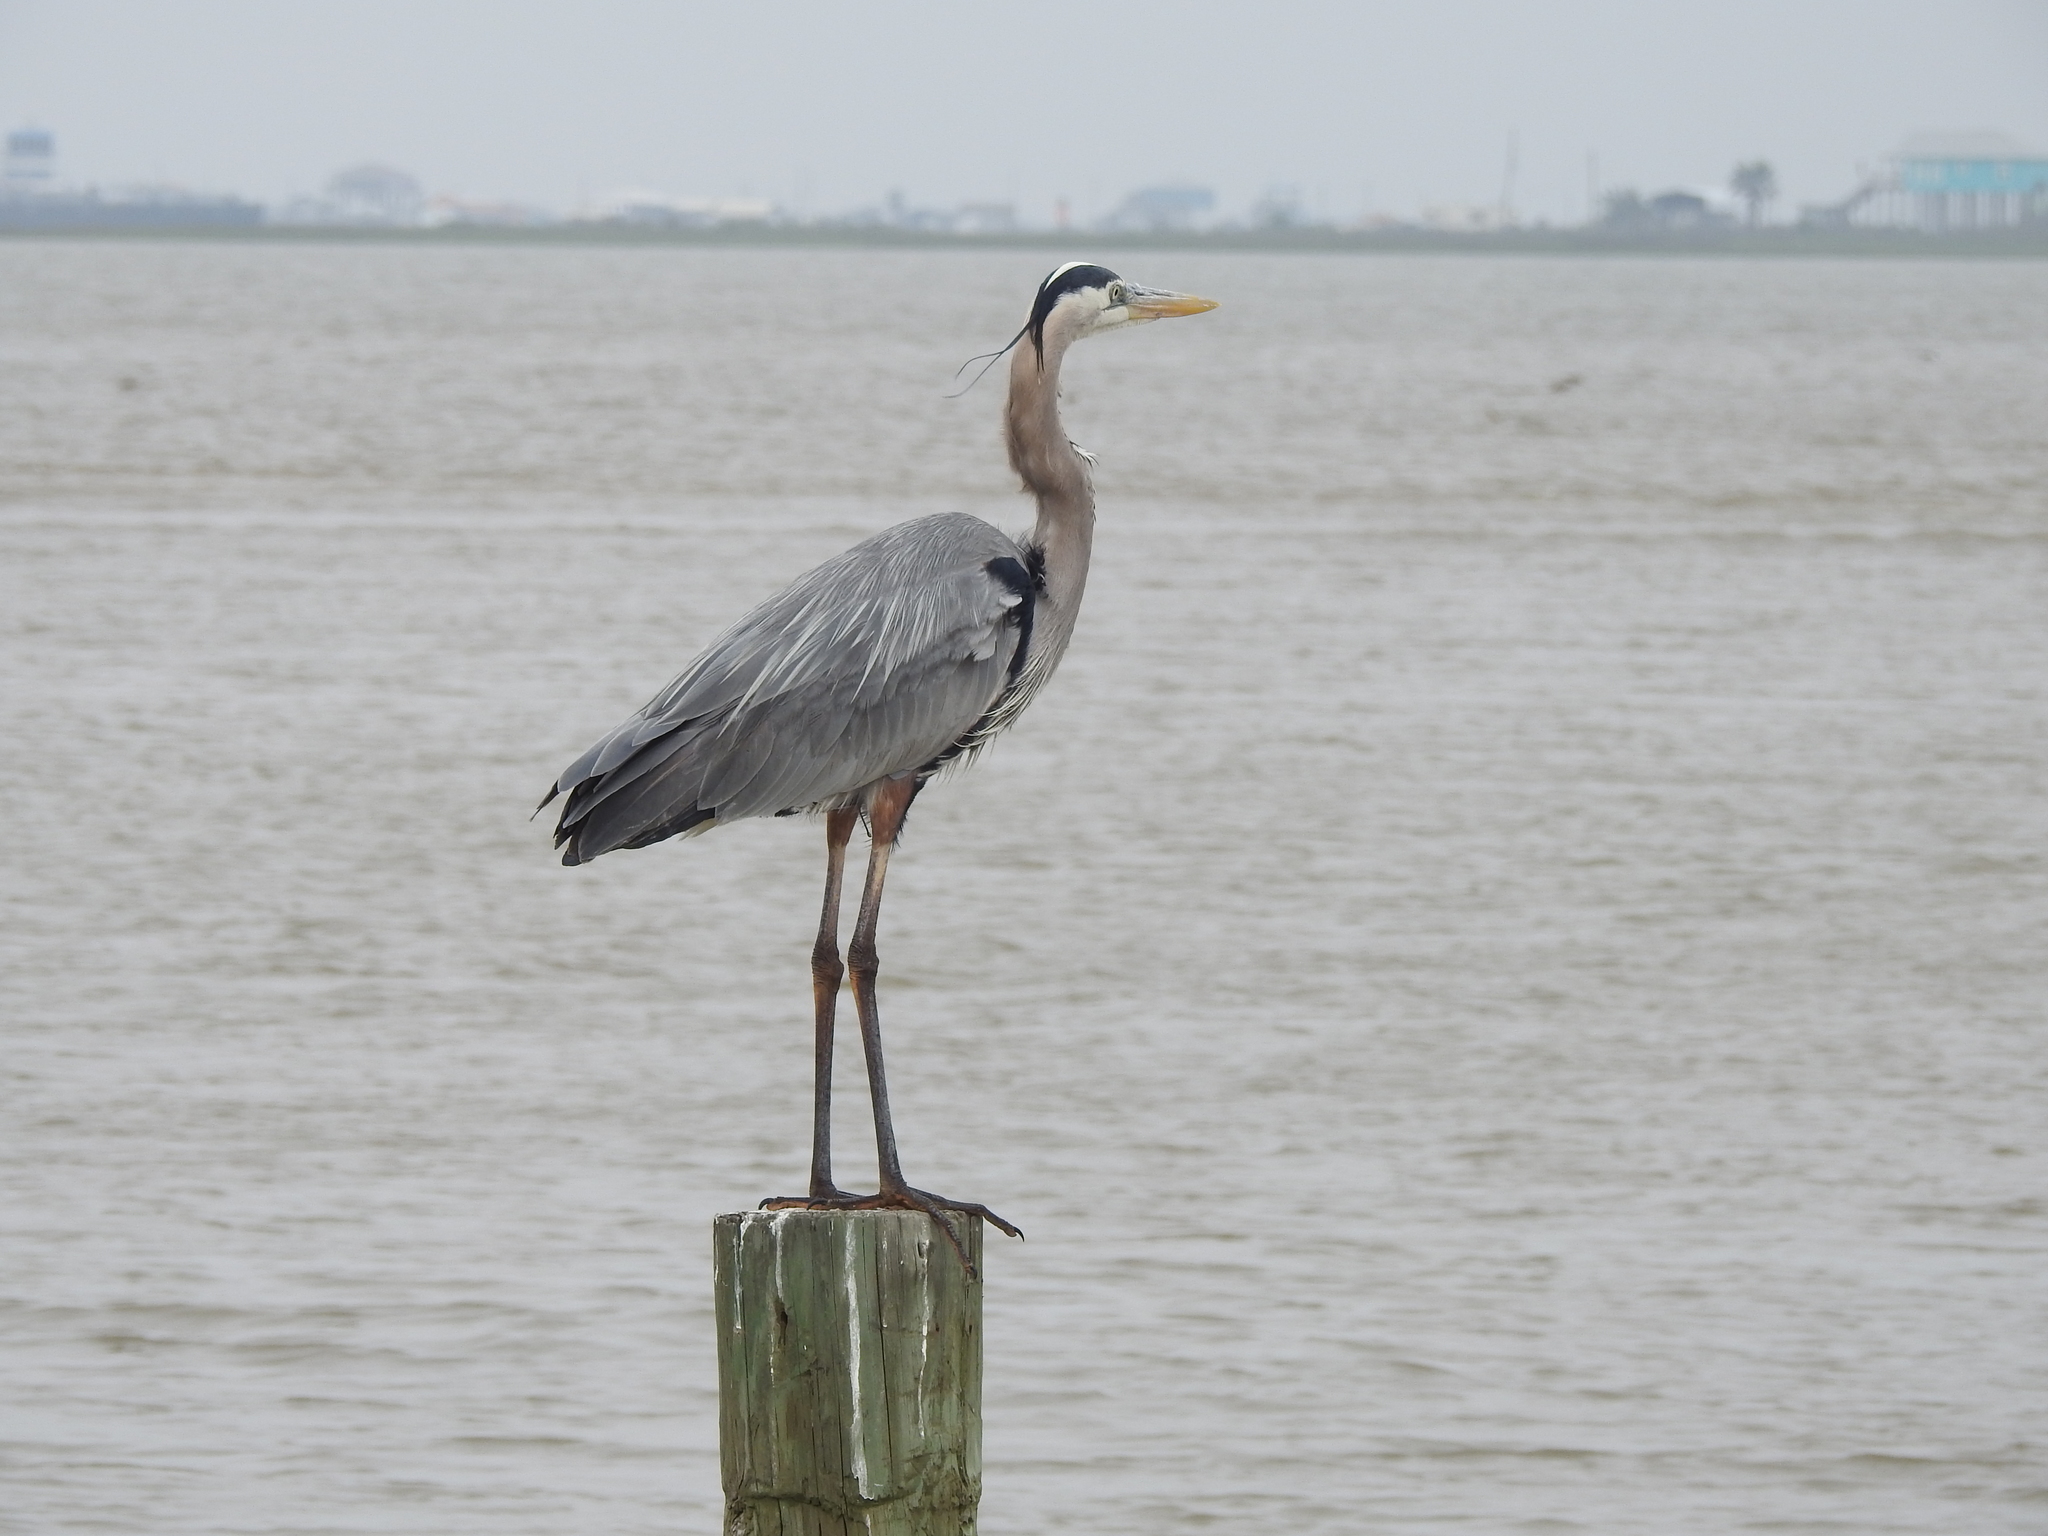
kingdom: Animalia
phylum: Chordata
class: Aves
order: Pelecaniformes
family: Ardeidae
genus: Ardea
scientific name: Ardea herodias
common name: Great blue heron
